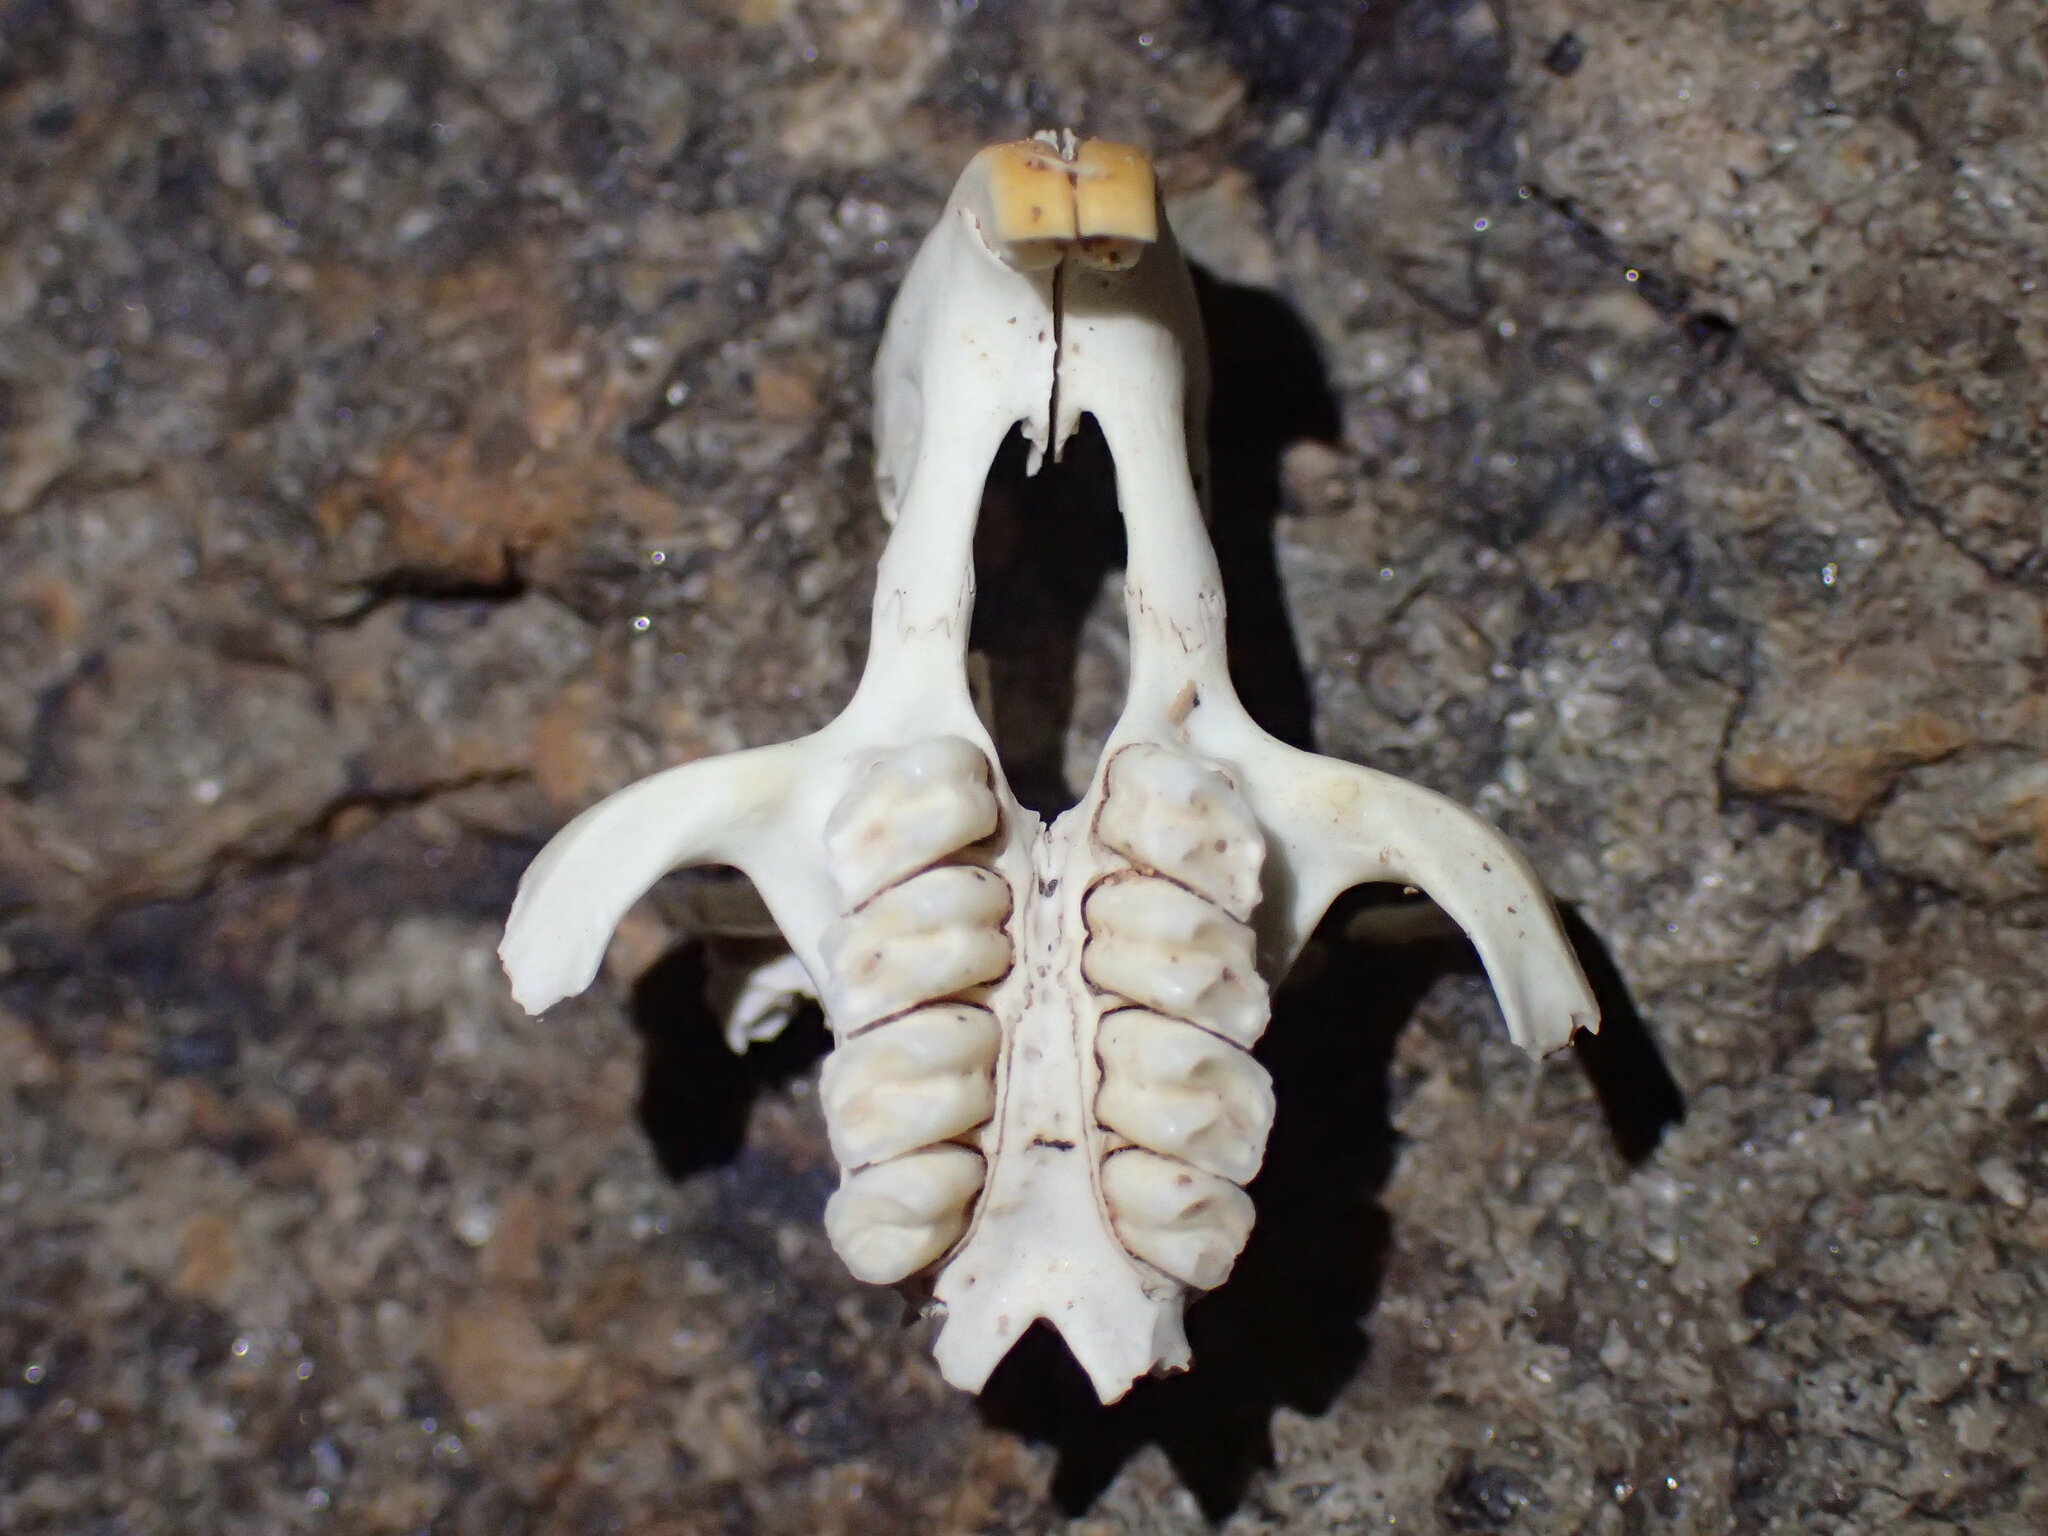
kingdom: Animalia
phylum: Chordata
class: Mammalia
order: Rodentia
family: Petromuridae
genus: Petromus
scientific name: Petromus typicus
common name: Dassie rat
